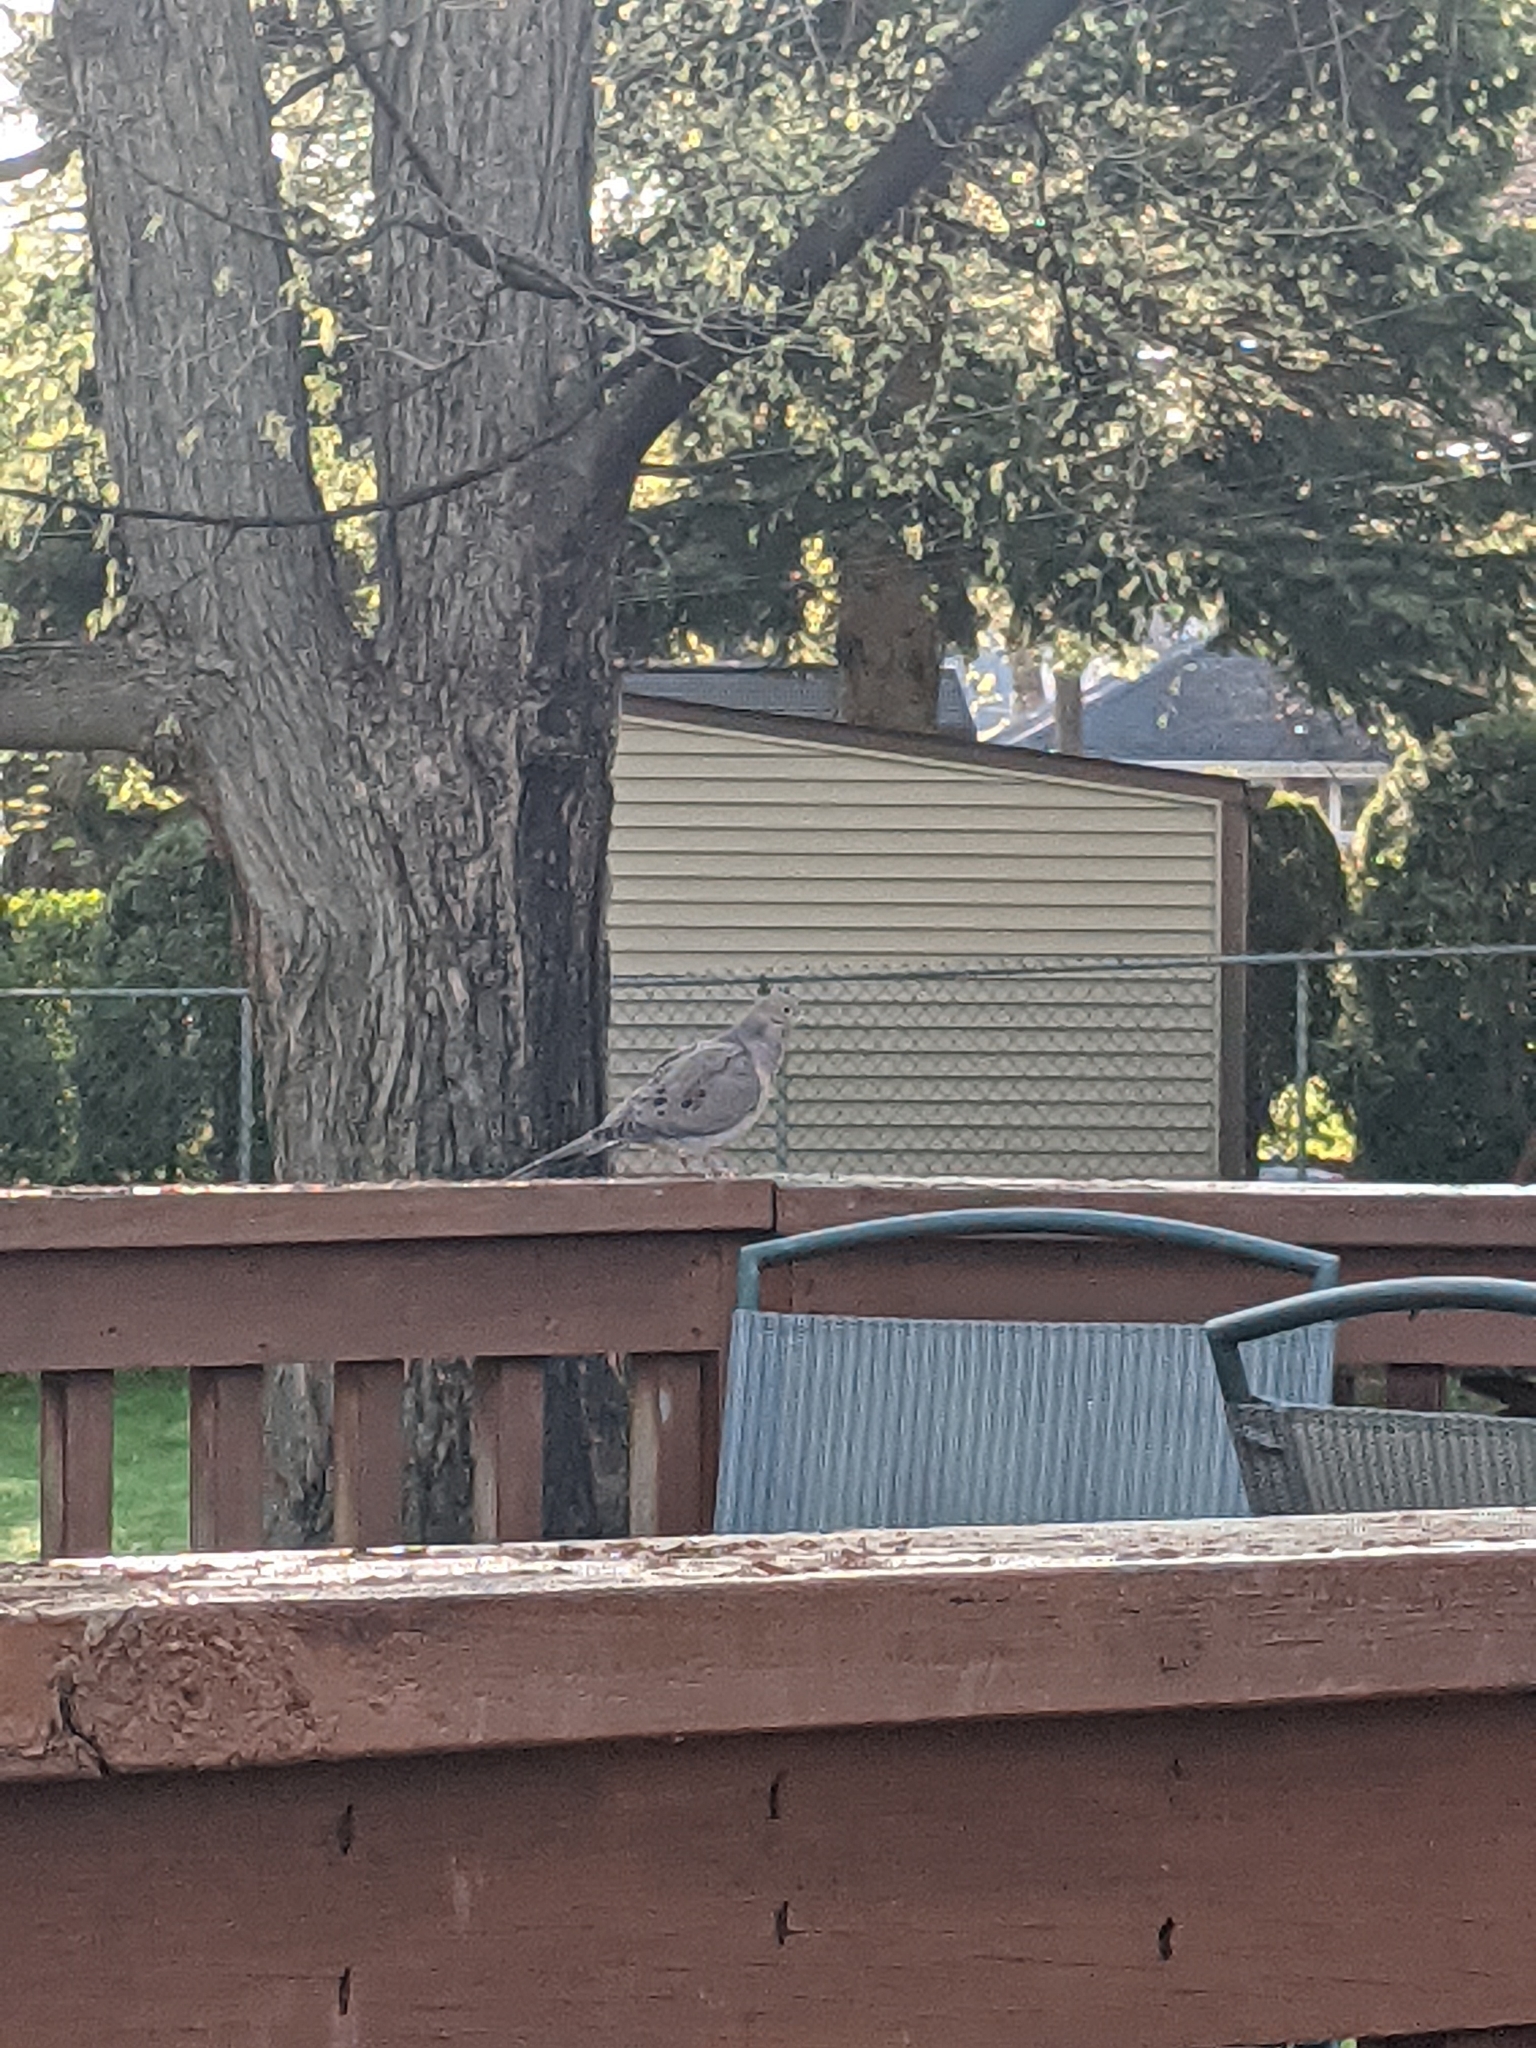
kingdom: Animalia
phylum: Chordata
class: Aves
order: Columbiformes
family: Columbidae
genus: Zenaida
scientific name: Zenaida macroura
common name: Mourning dove
